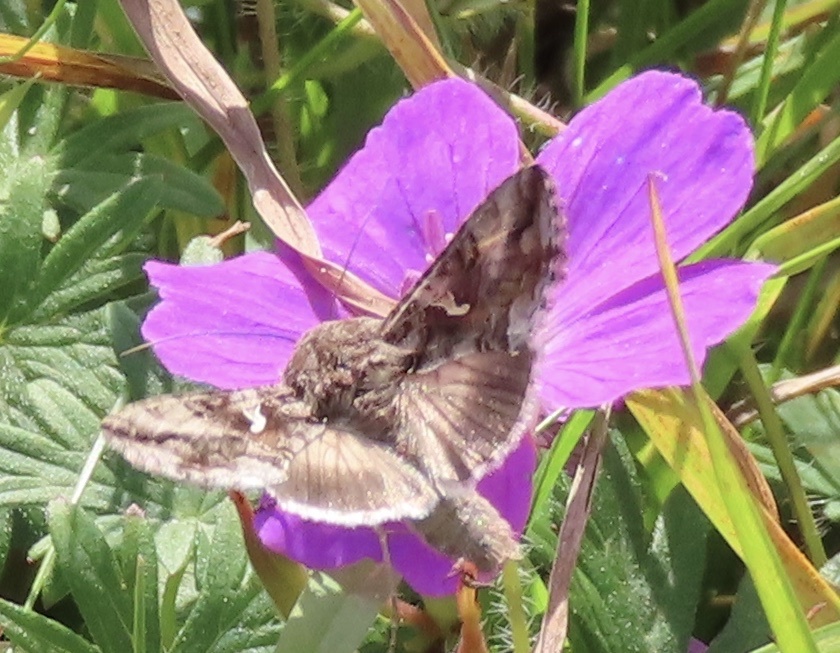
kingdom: Animalia
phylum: Arthropoda
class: Insecta
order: Lepidoptera
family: Noctuidae
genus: Autographa
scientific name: Autographa gamma
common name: Silver y
